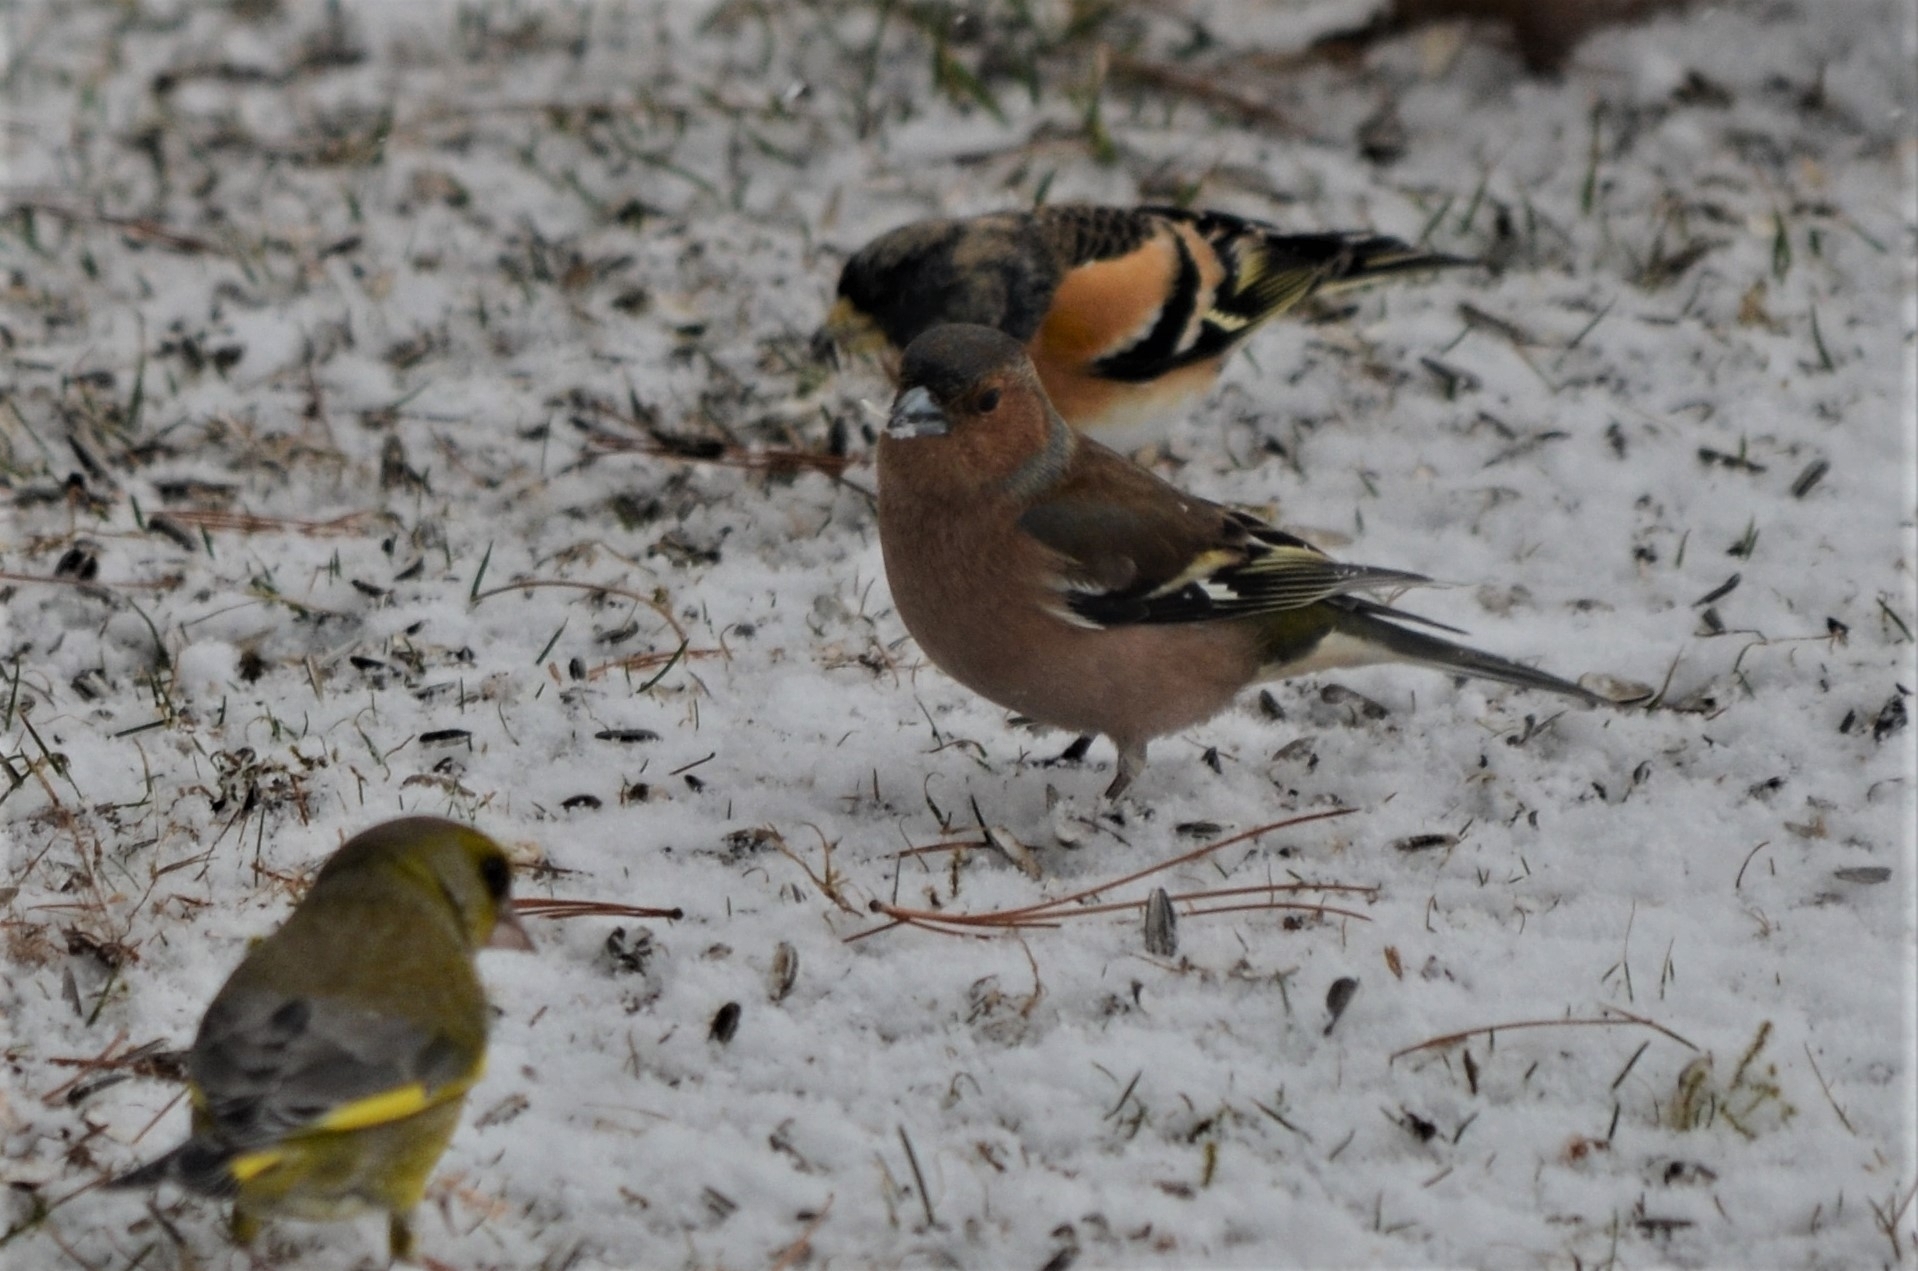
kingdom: Plantae
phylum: Tracheophyta
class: Liliopsida
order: Poales
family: Poaceae
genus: Chloris
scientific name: Chloris chloris
